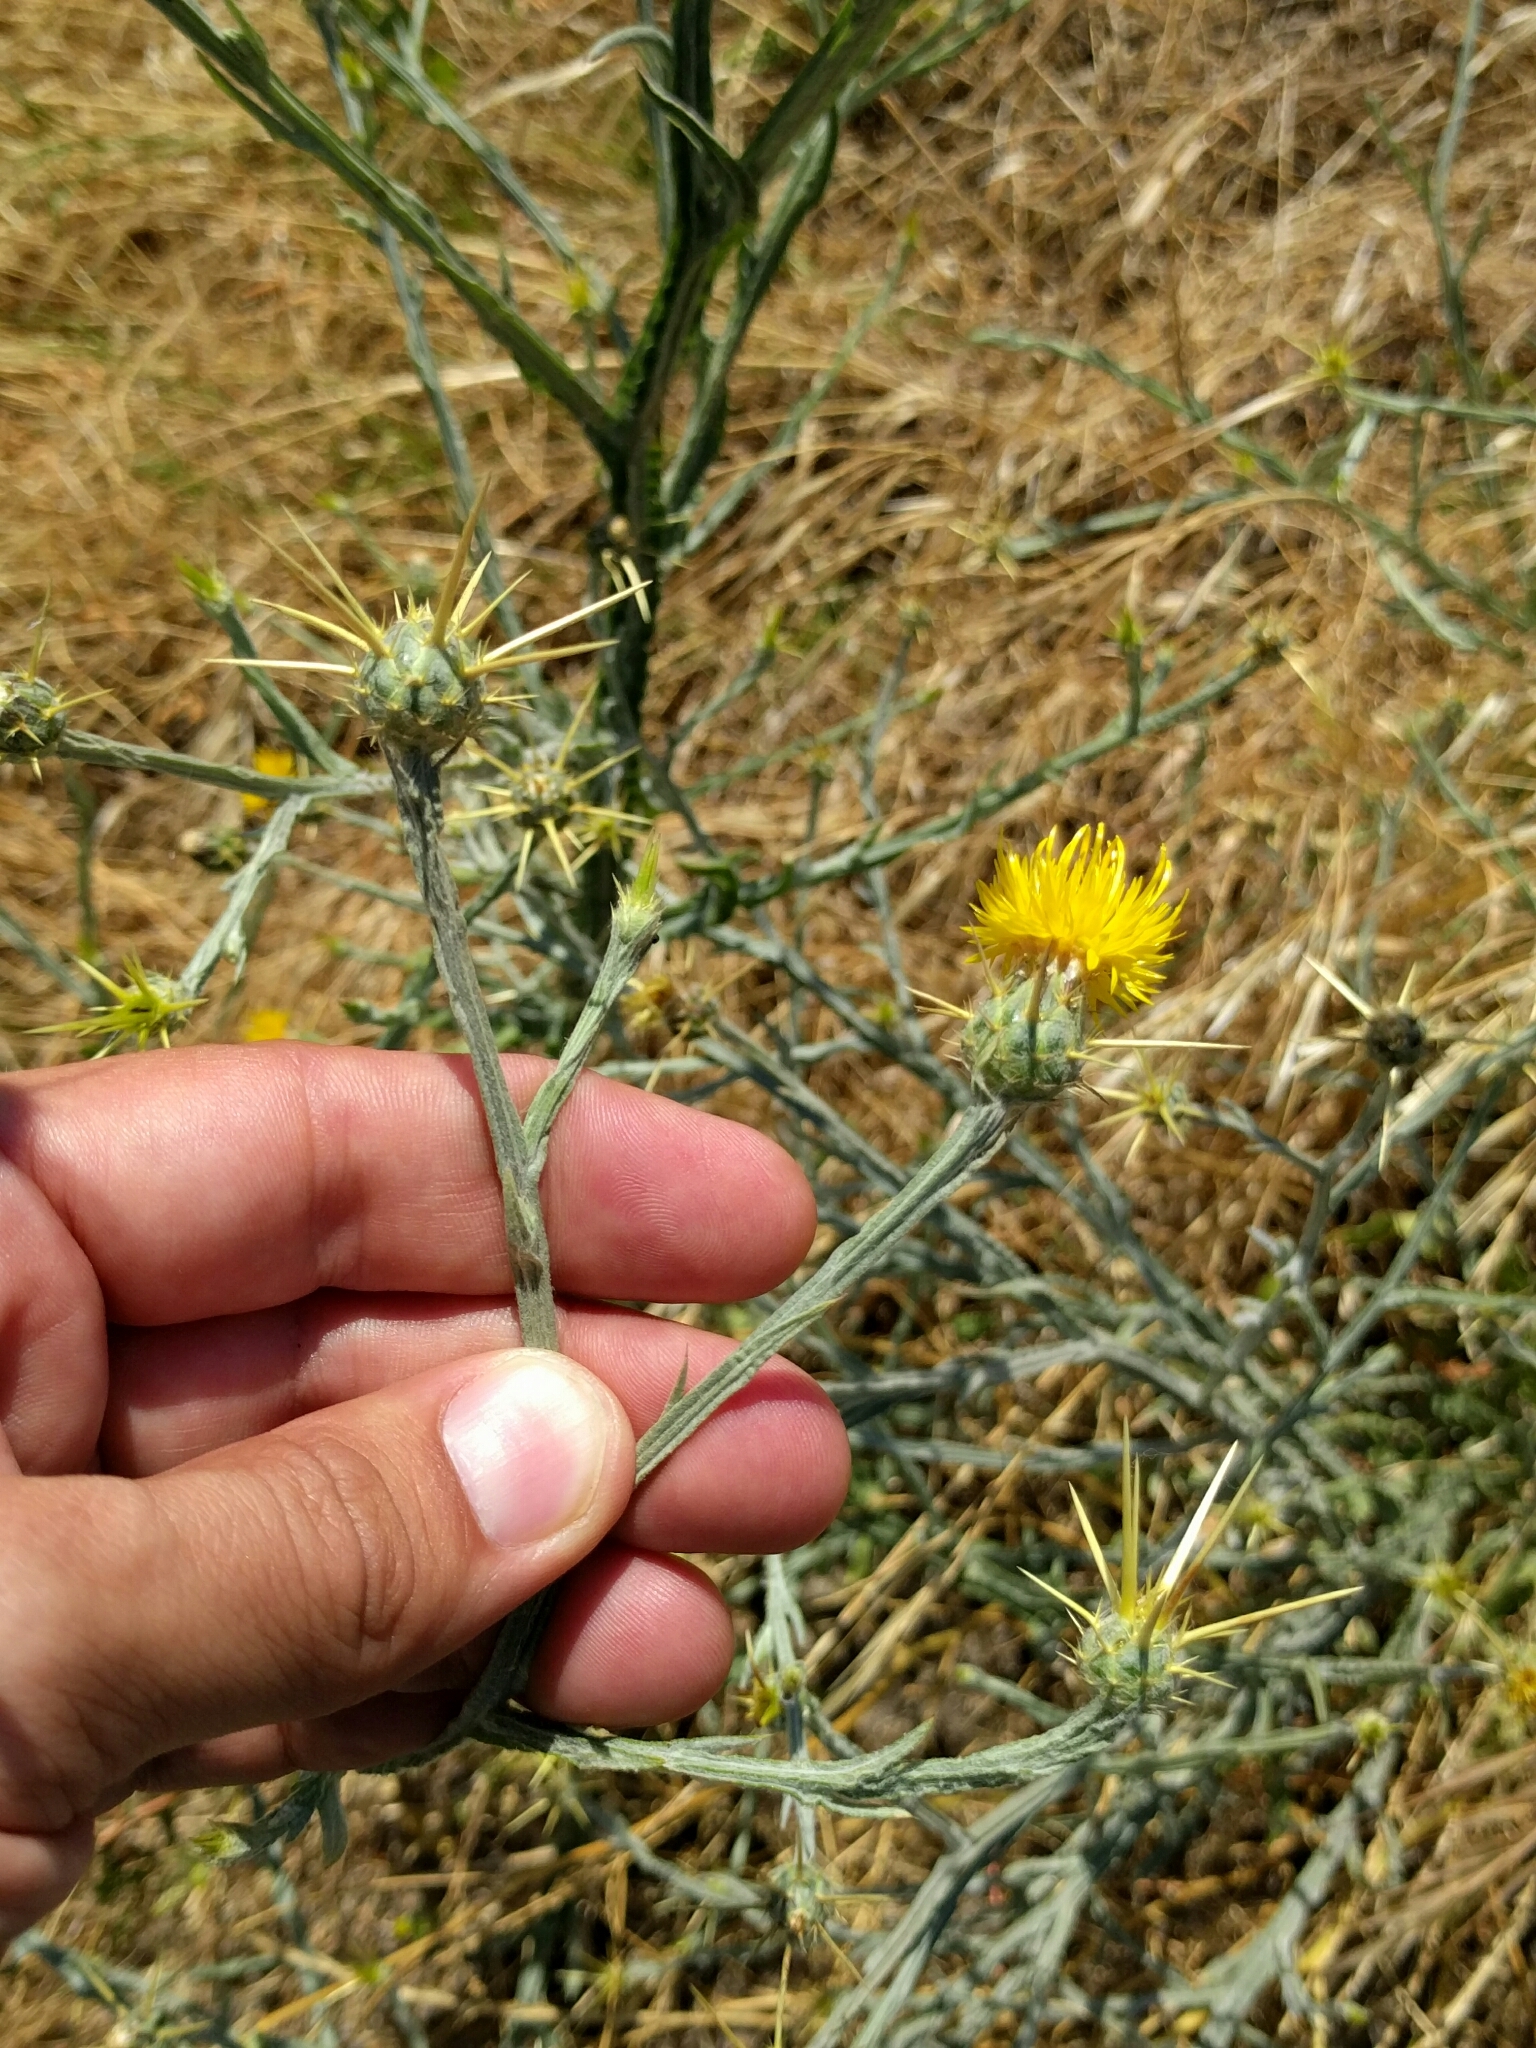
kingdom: Plantae
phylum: Tracheophyta
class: Magnoliopsida
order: Asterales
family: Asteraceae
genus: Centaurea
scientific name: Centaurea solstitialis
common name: Yellow star-thistle
